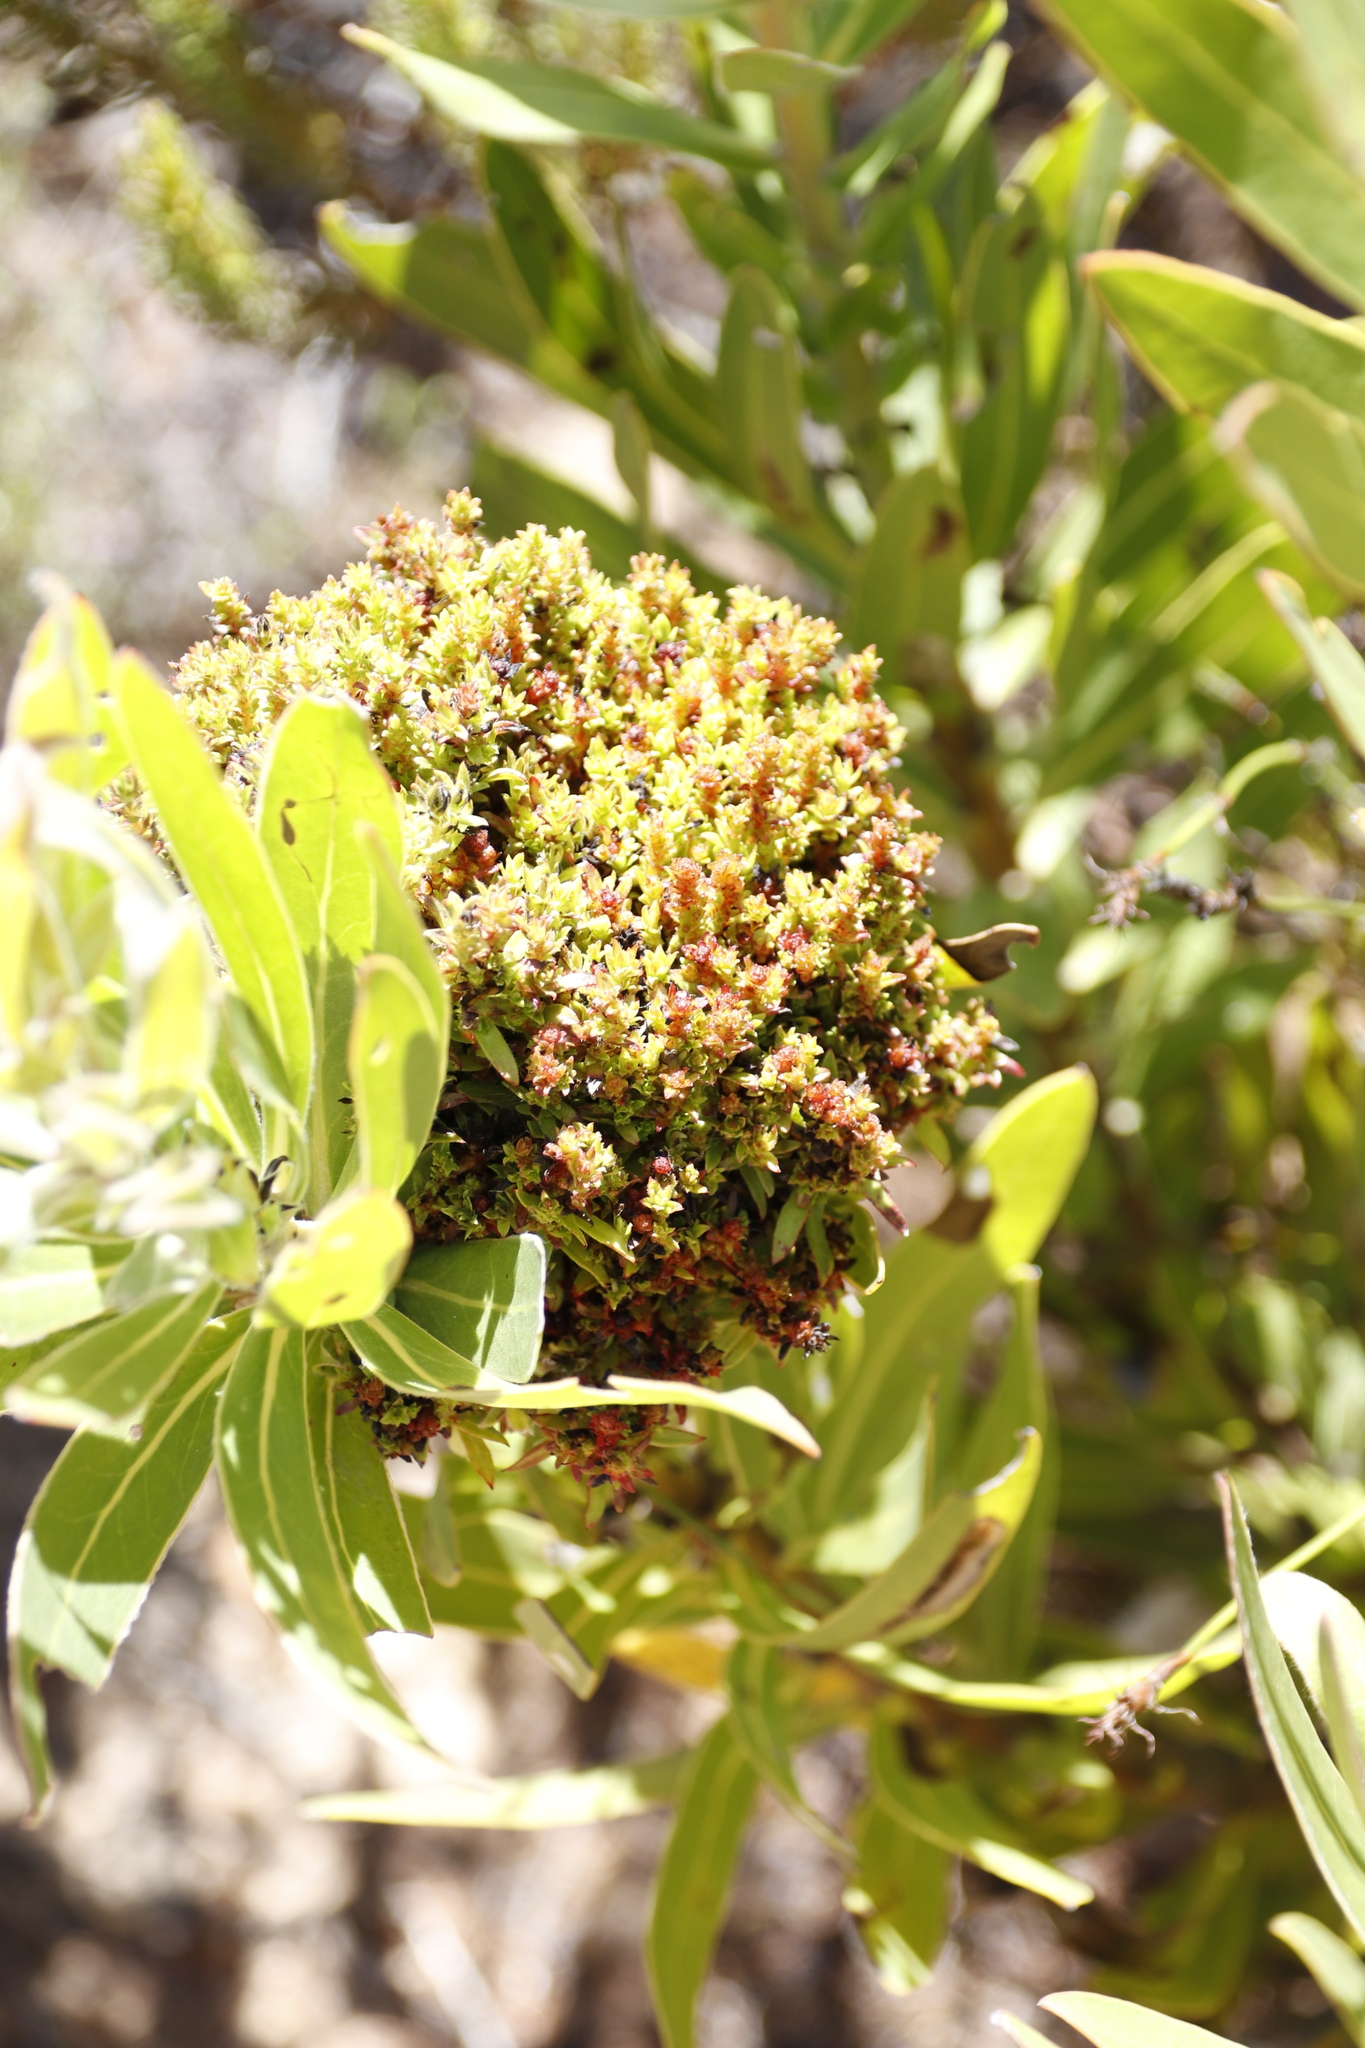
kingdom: Bacteria
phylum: Firmicutes
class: Bacilli
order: Acholeplasmatales
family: Acholeplasmataceae
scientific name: Acholeplasmataceae
